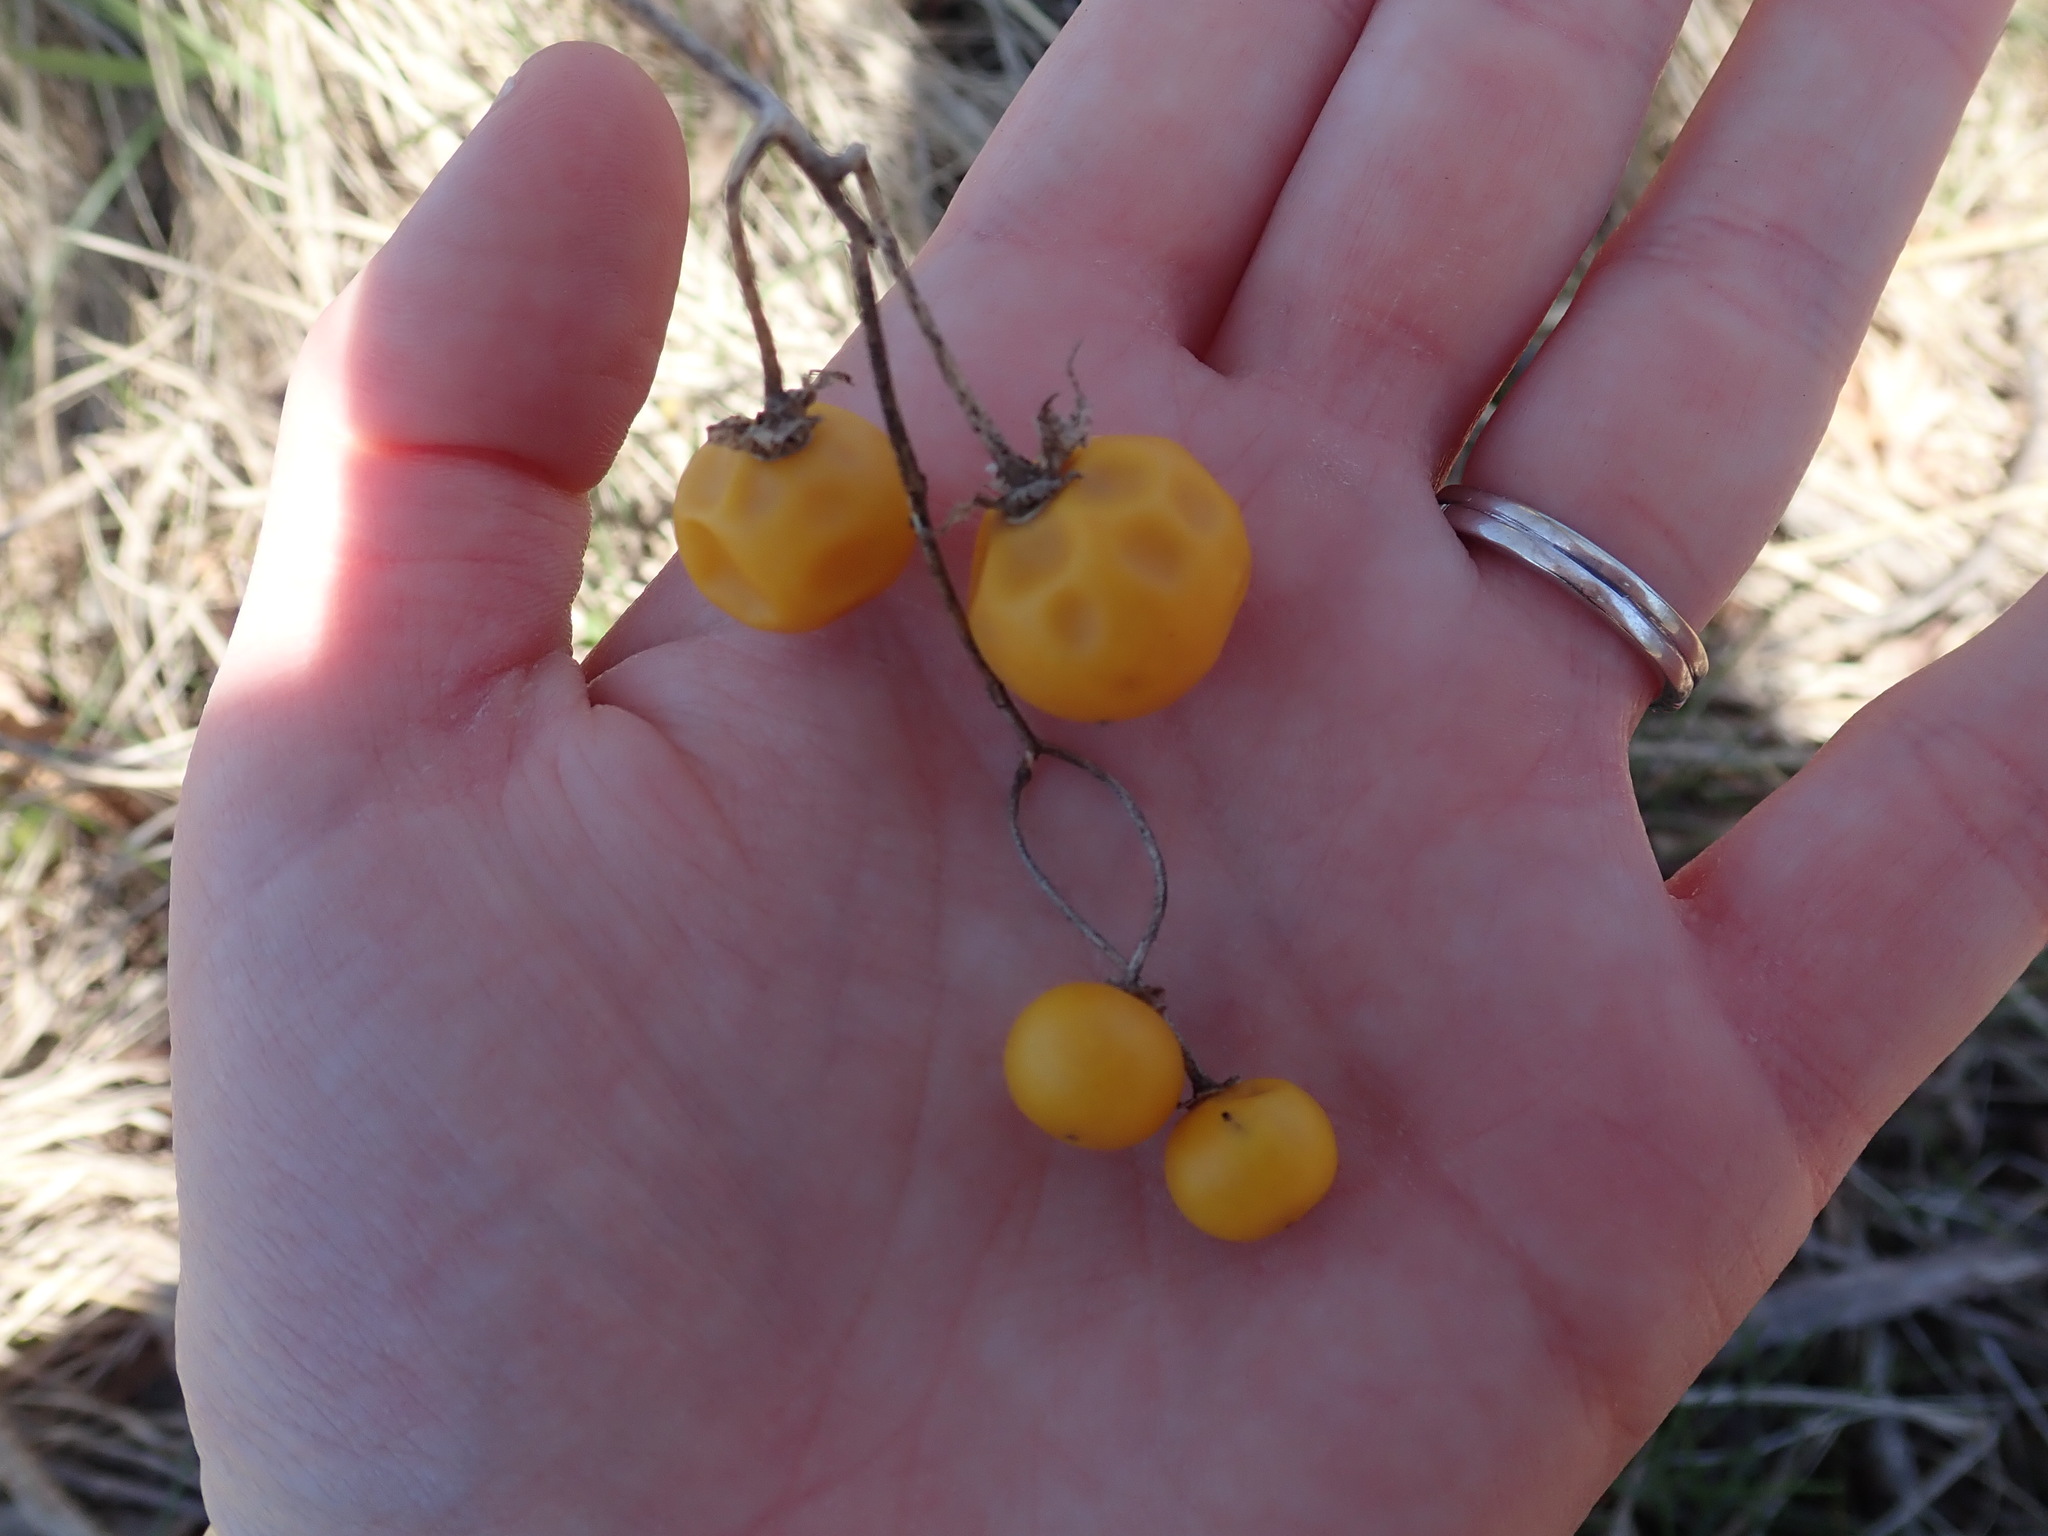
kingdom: Plantae
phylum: Tracheophyta
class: Magnoliopsida
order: Solanales
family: Solanaceae
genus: Solanum
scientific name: Solanum carolinense
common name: Horse-nettle
